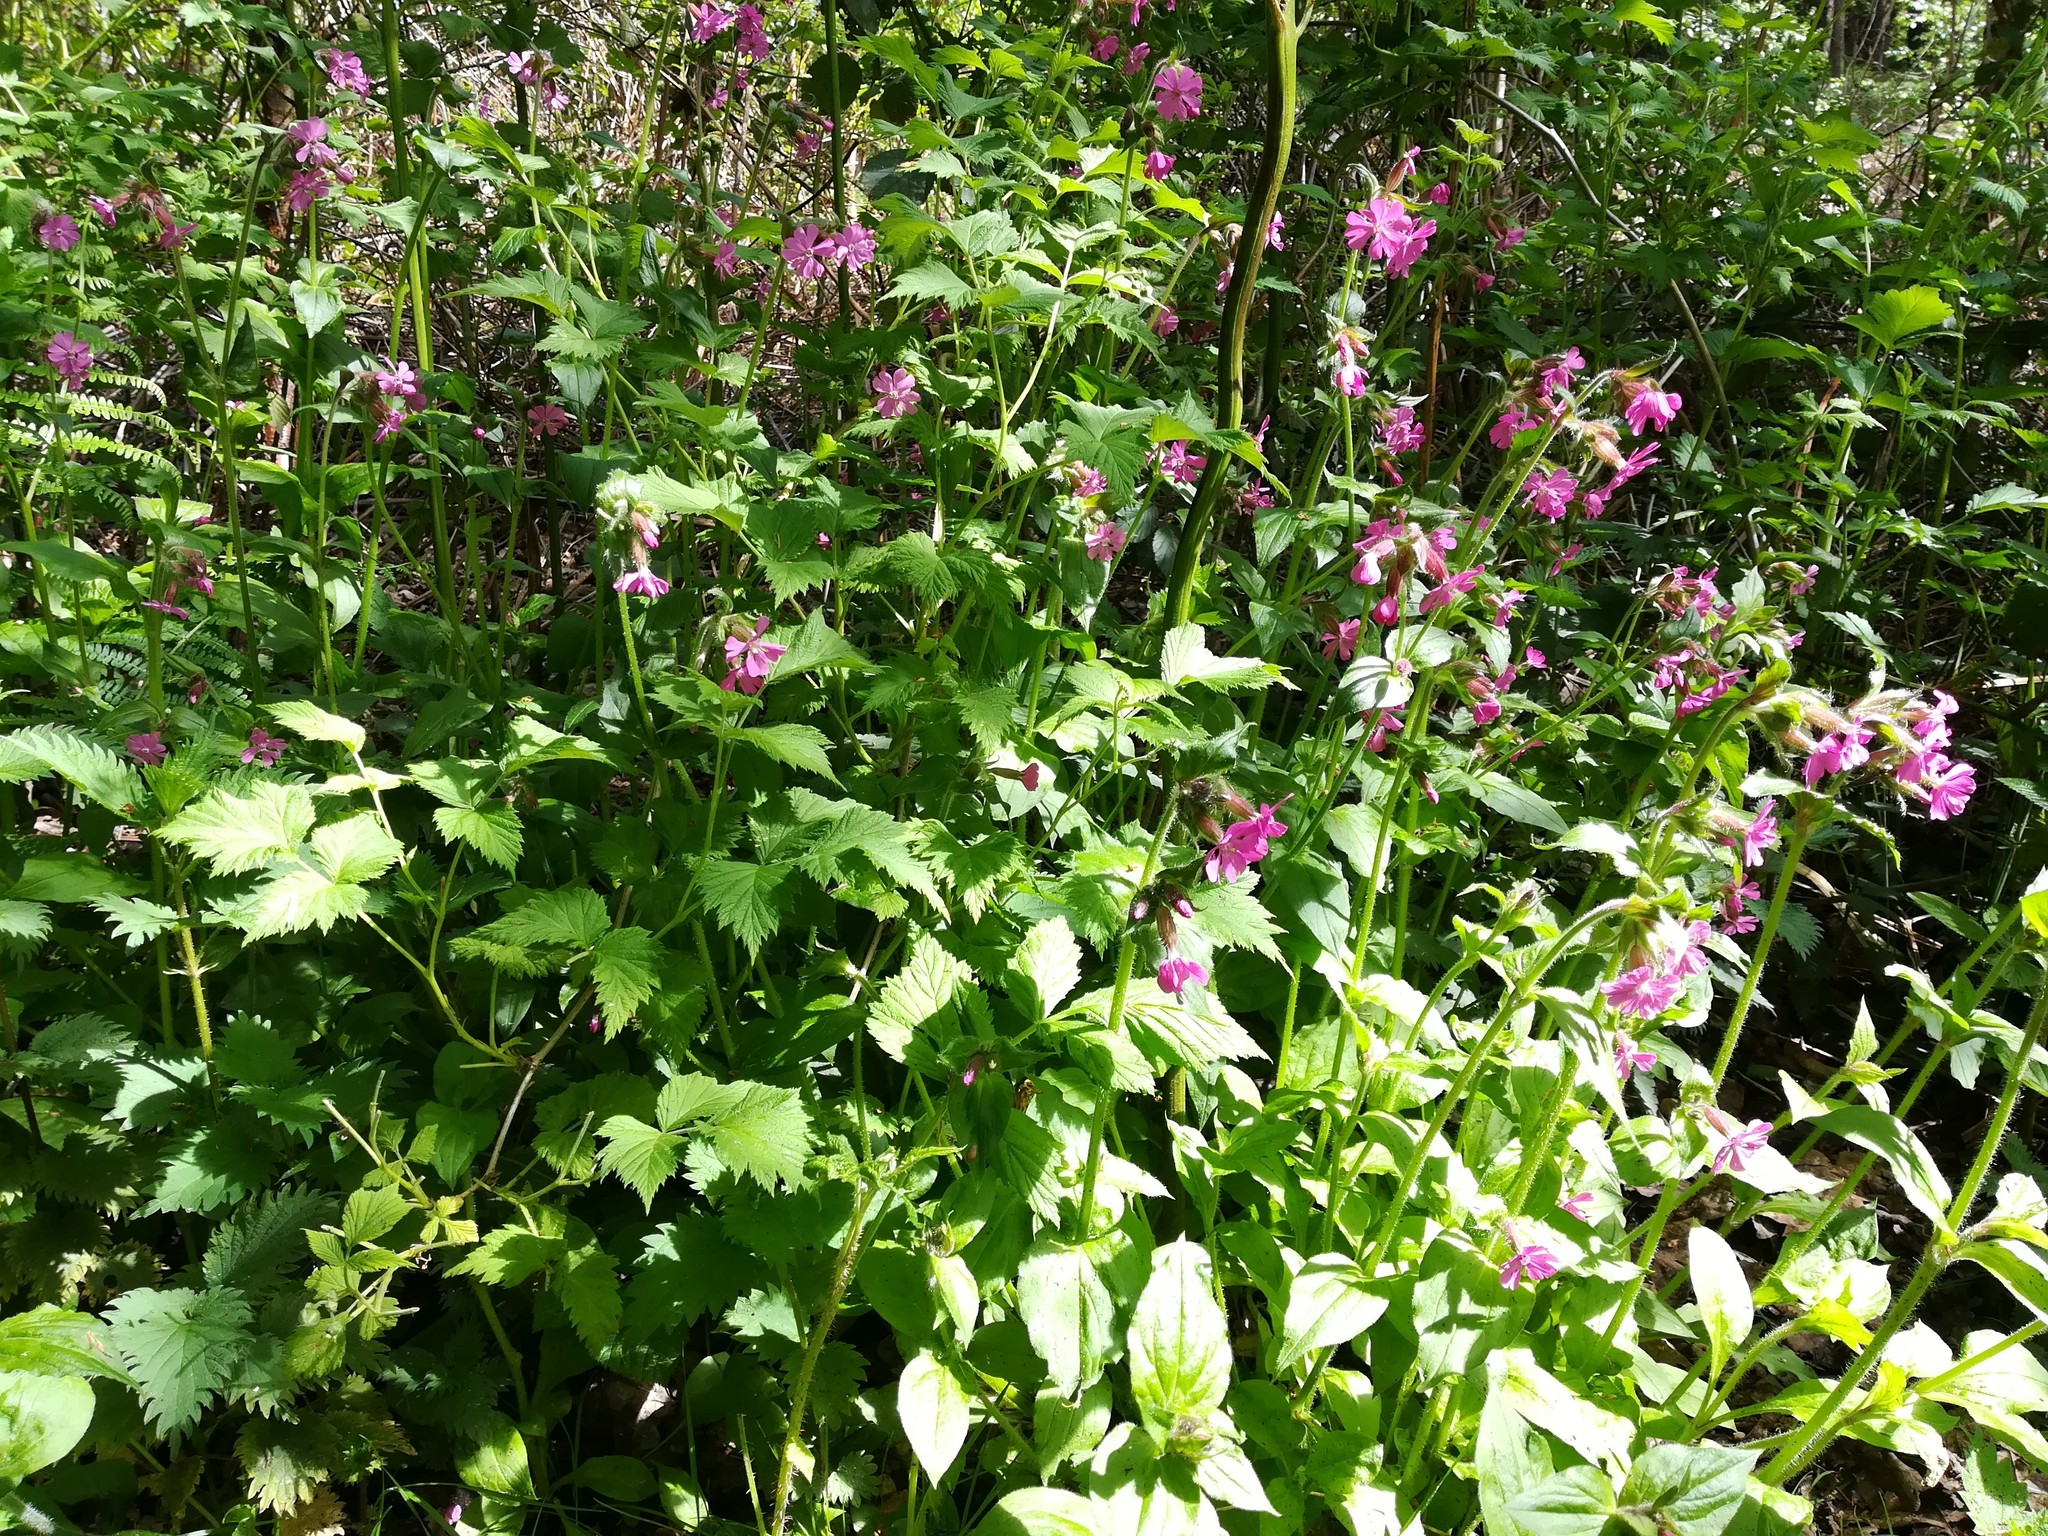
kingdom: Plantae
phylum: Tracheophyta
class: Magnoliopsida
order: Caryophyllales
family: Caryophyllaceae
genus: Silene
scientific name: Silene dioica
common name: Red campion
